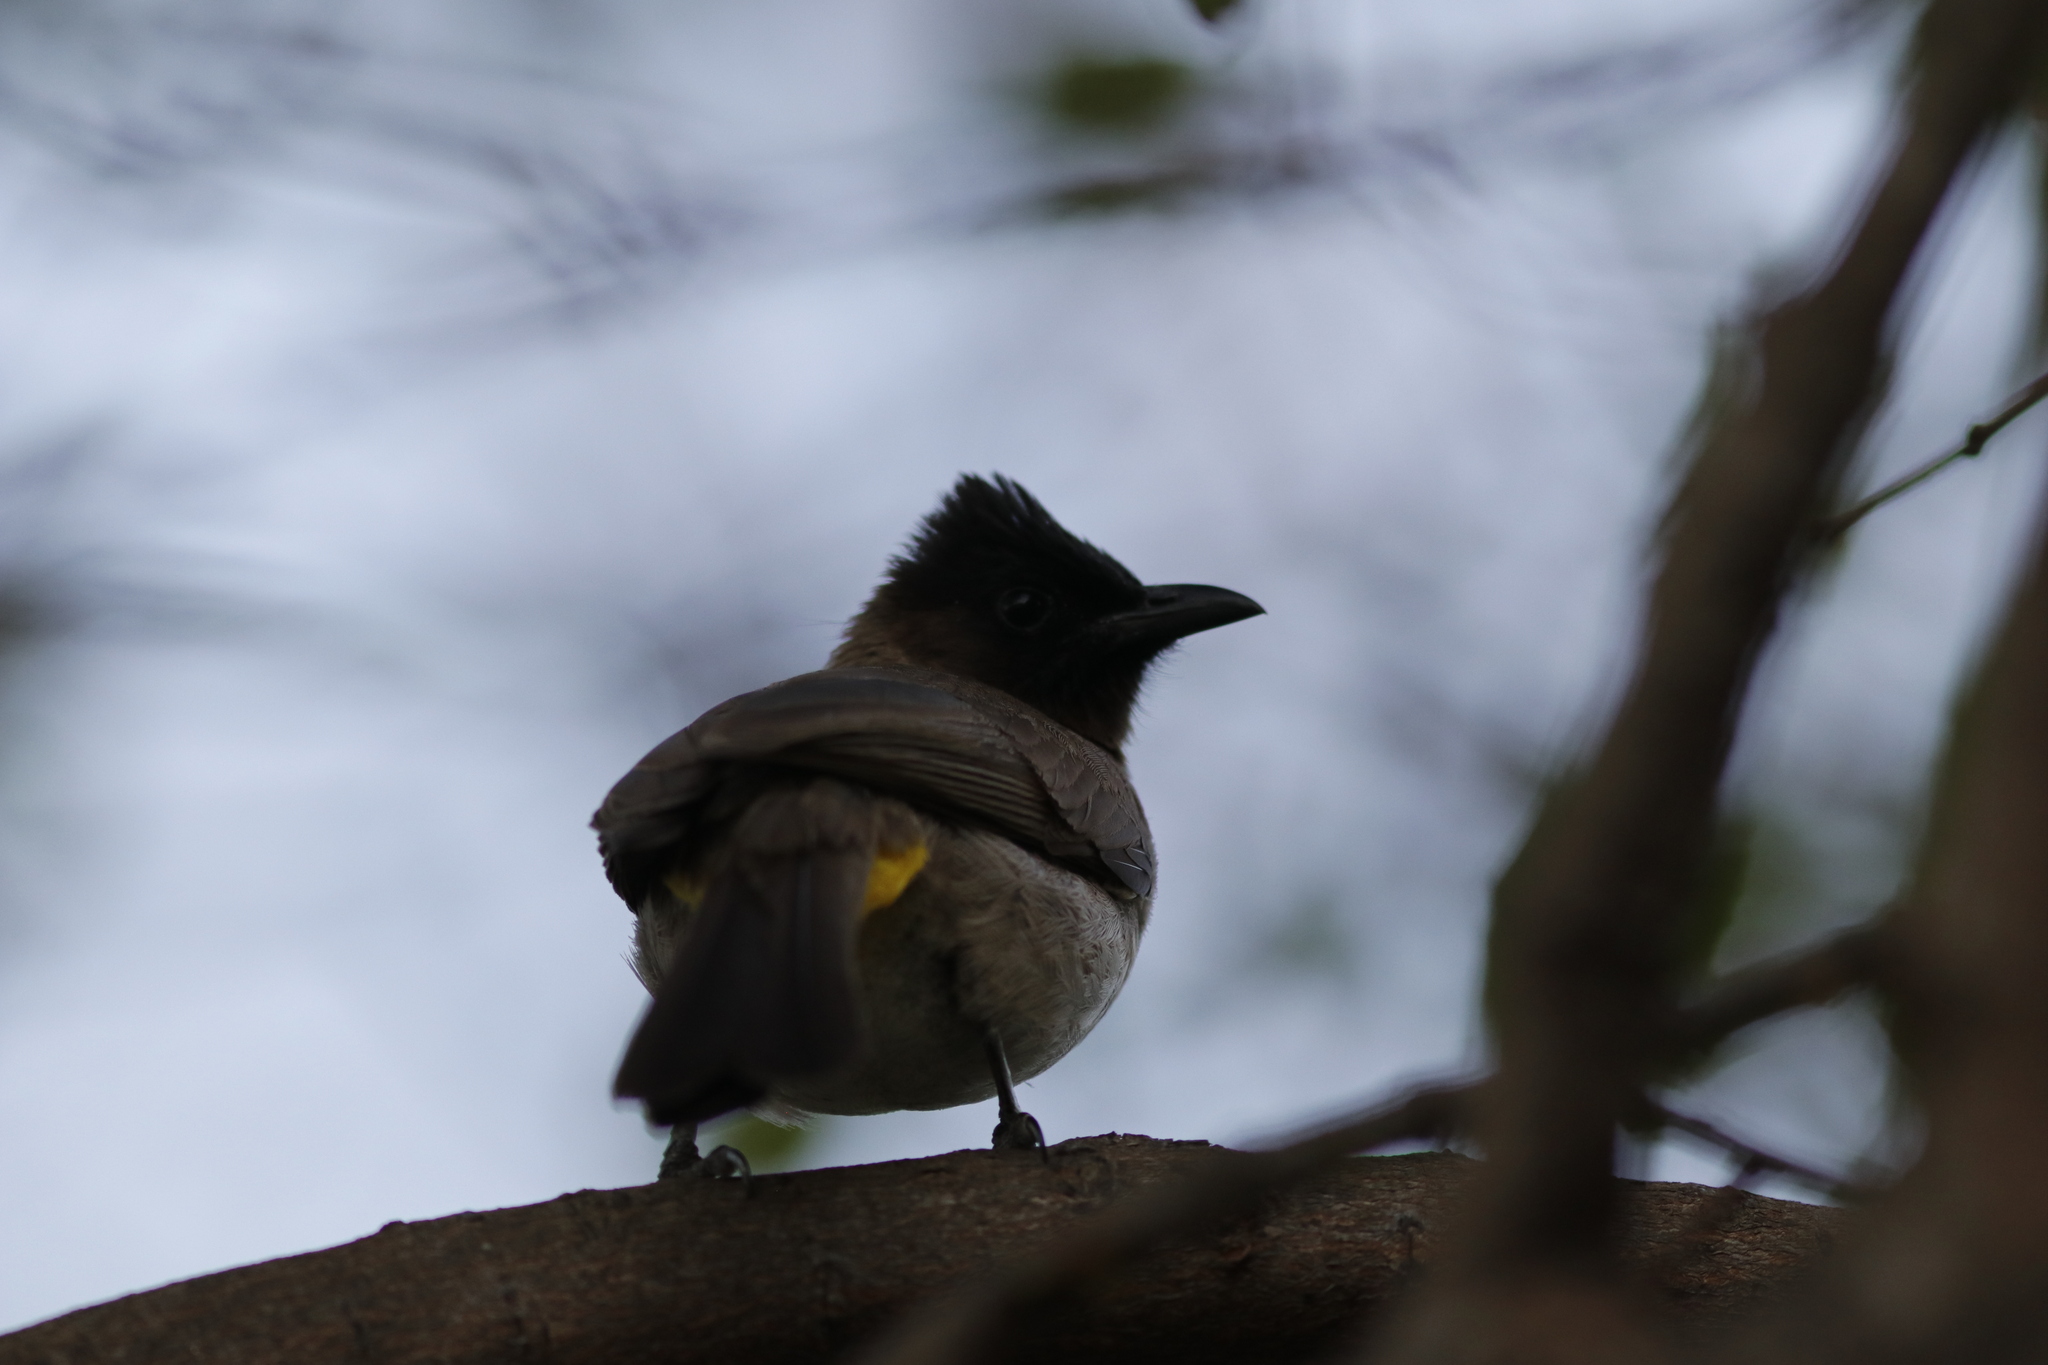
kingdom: Animalia
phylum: Chordata
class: Aves
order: Passeriformes
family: Pycnonotidae
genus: Pycnonotus
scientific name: Pycnonotus barbatus
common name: Common bulbul
